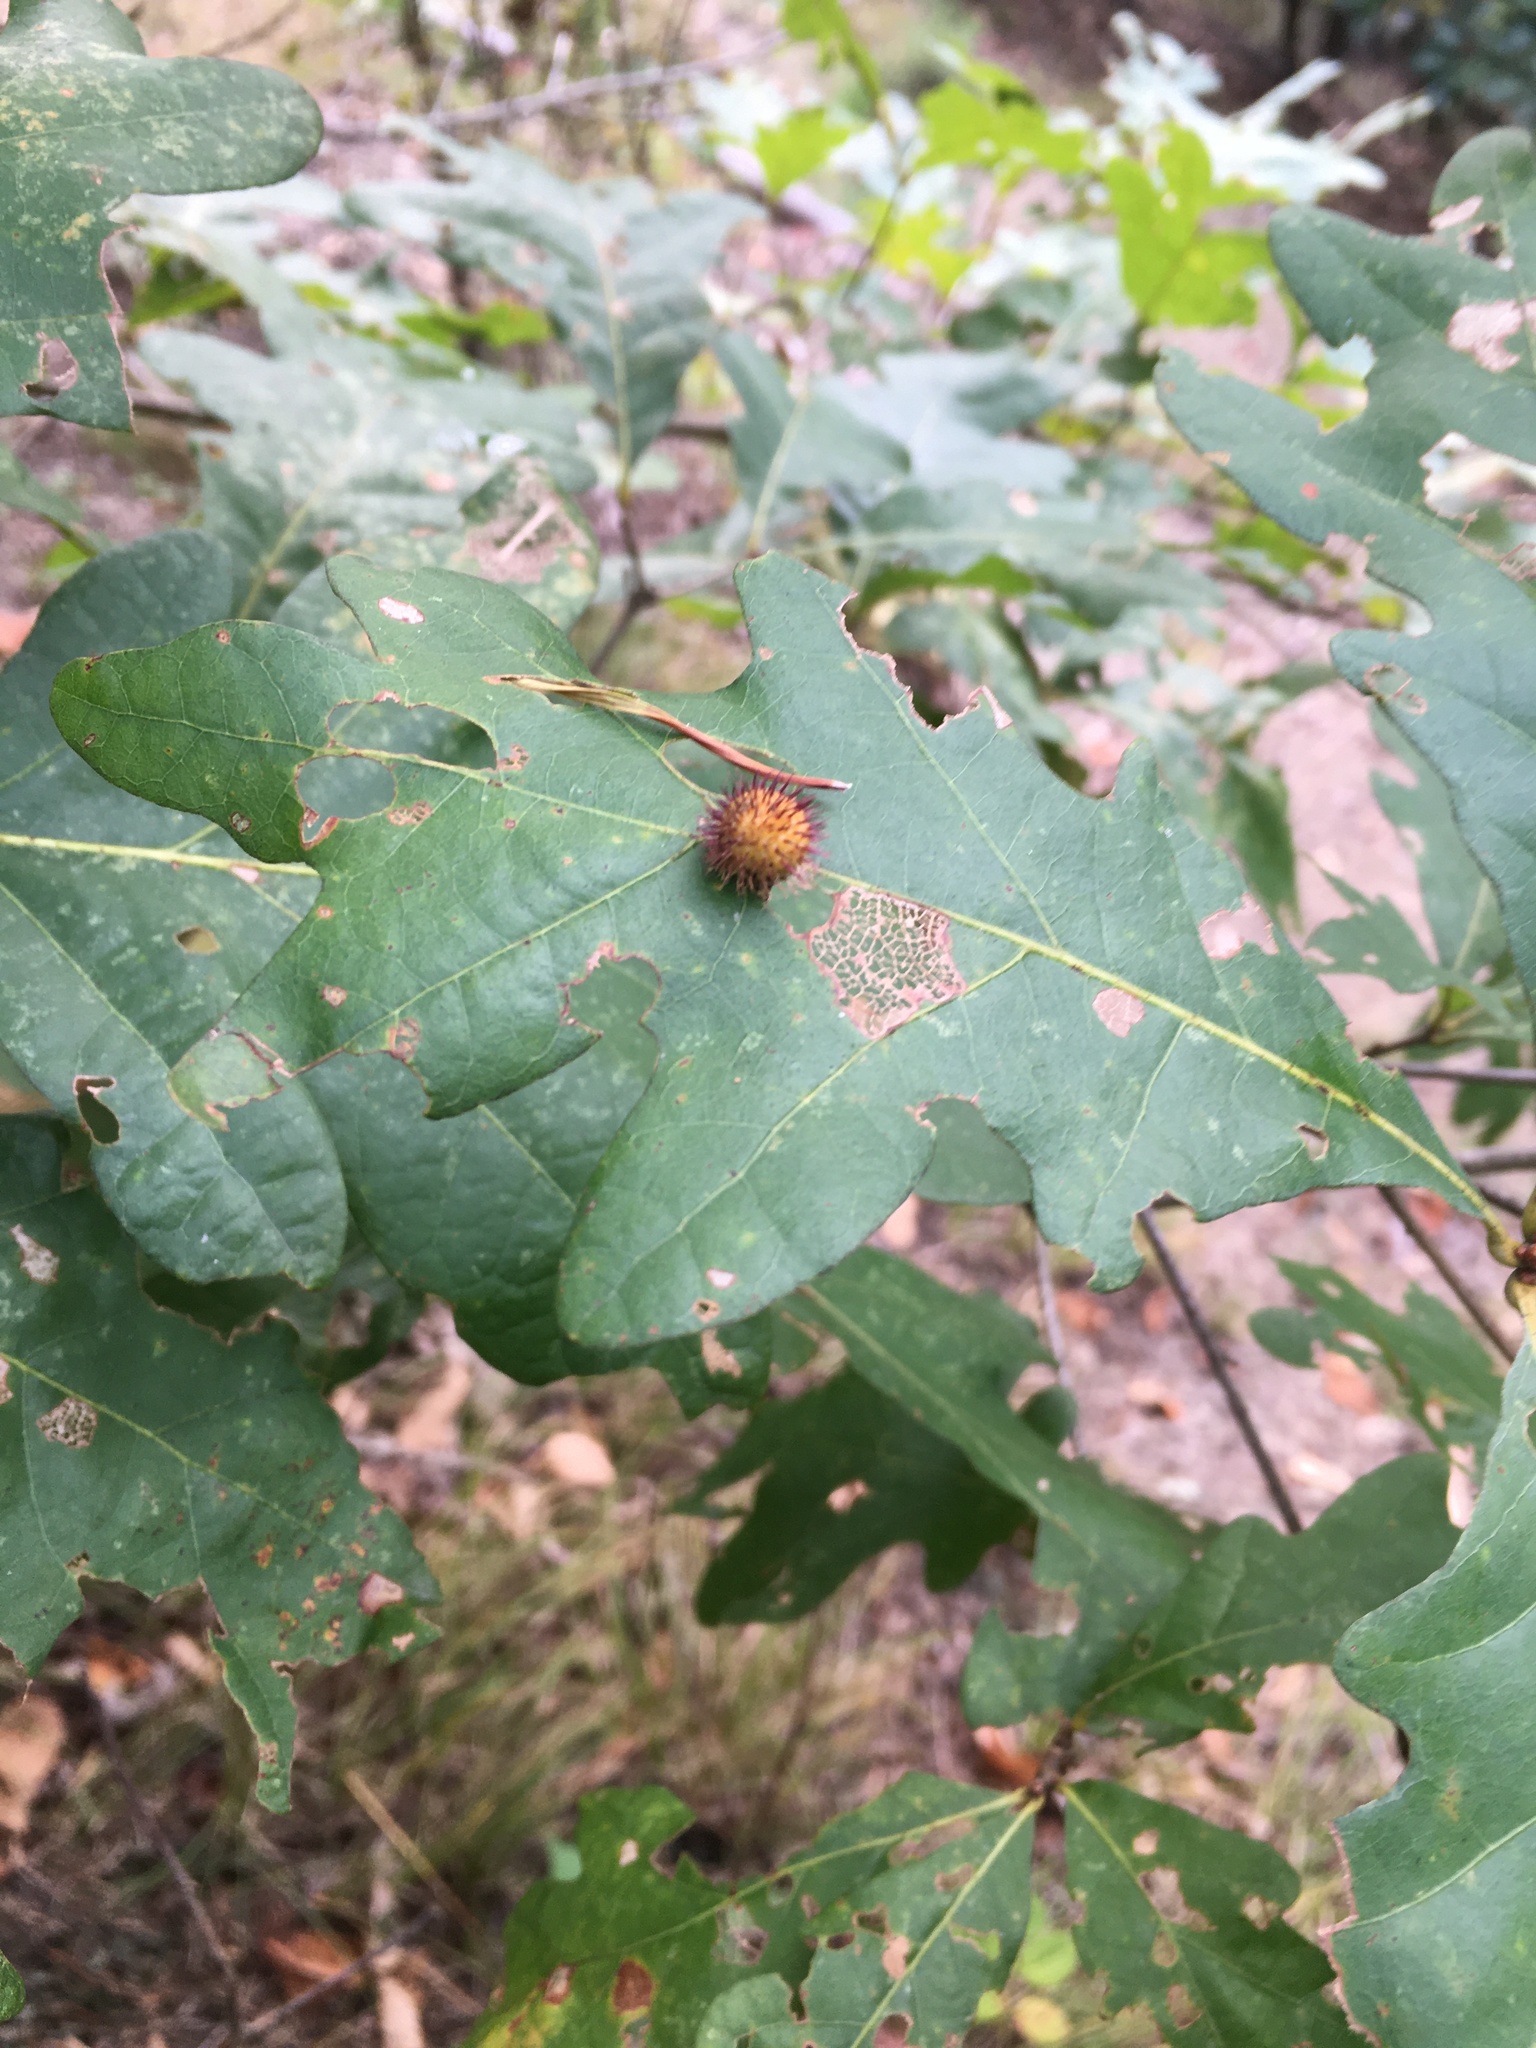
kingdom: Animalia
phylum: Arthropoda
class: Insecta
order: Hymenoptera
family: Cynipidae
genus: Acraspis
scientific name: Acraspis erinacei
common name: Hedgehog gall wasp
